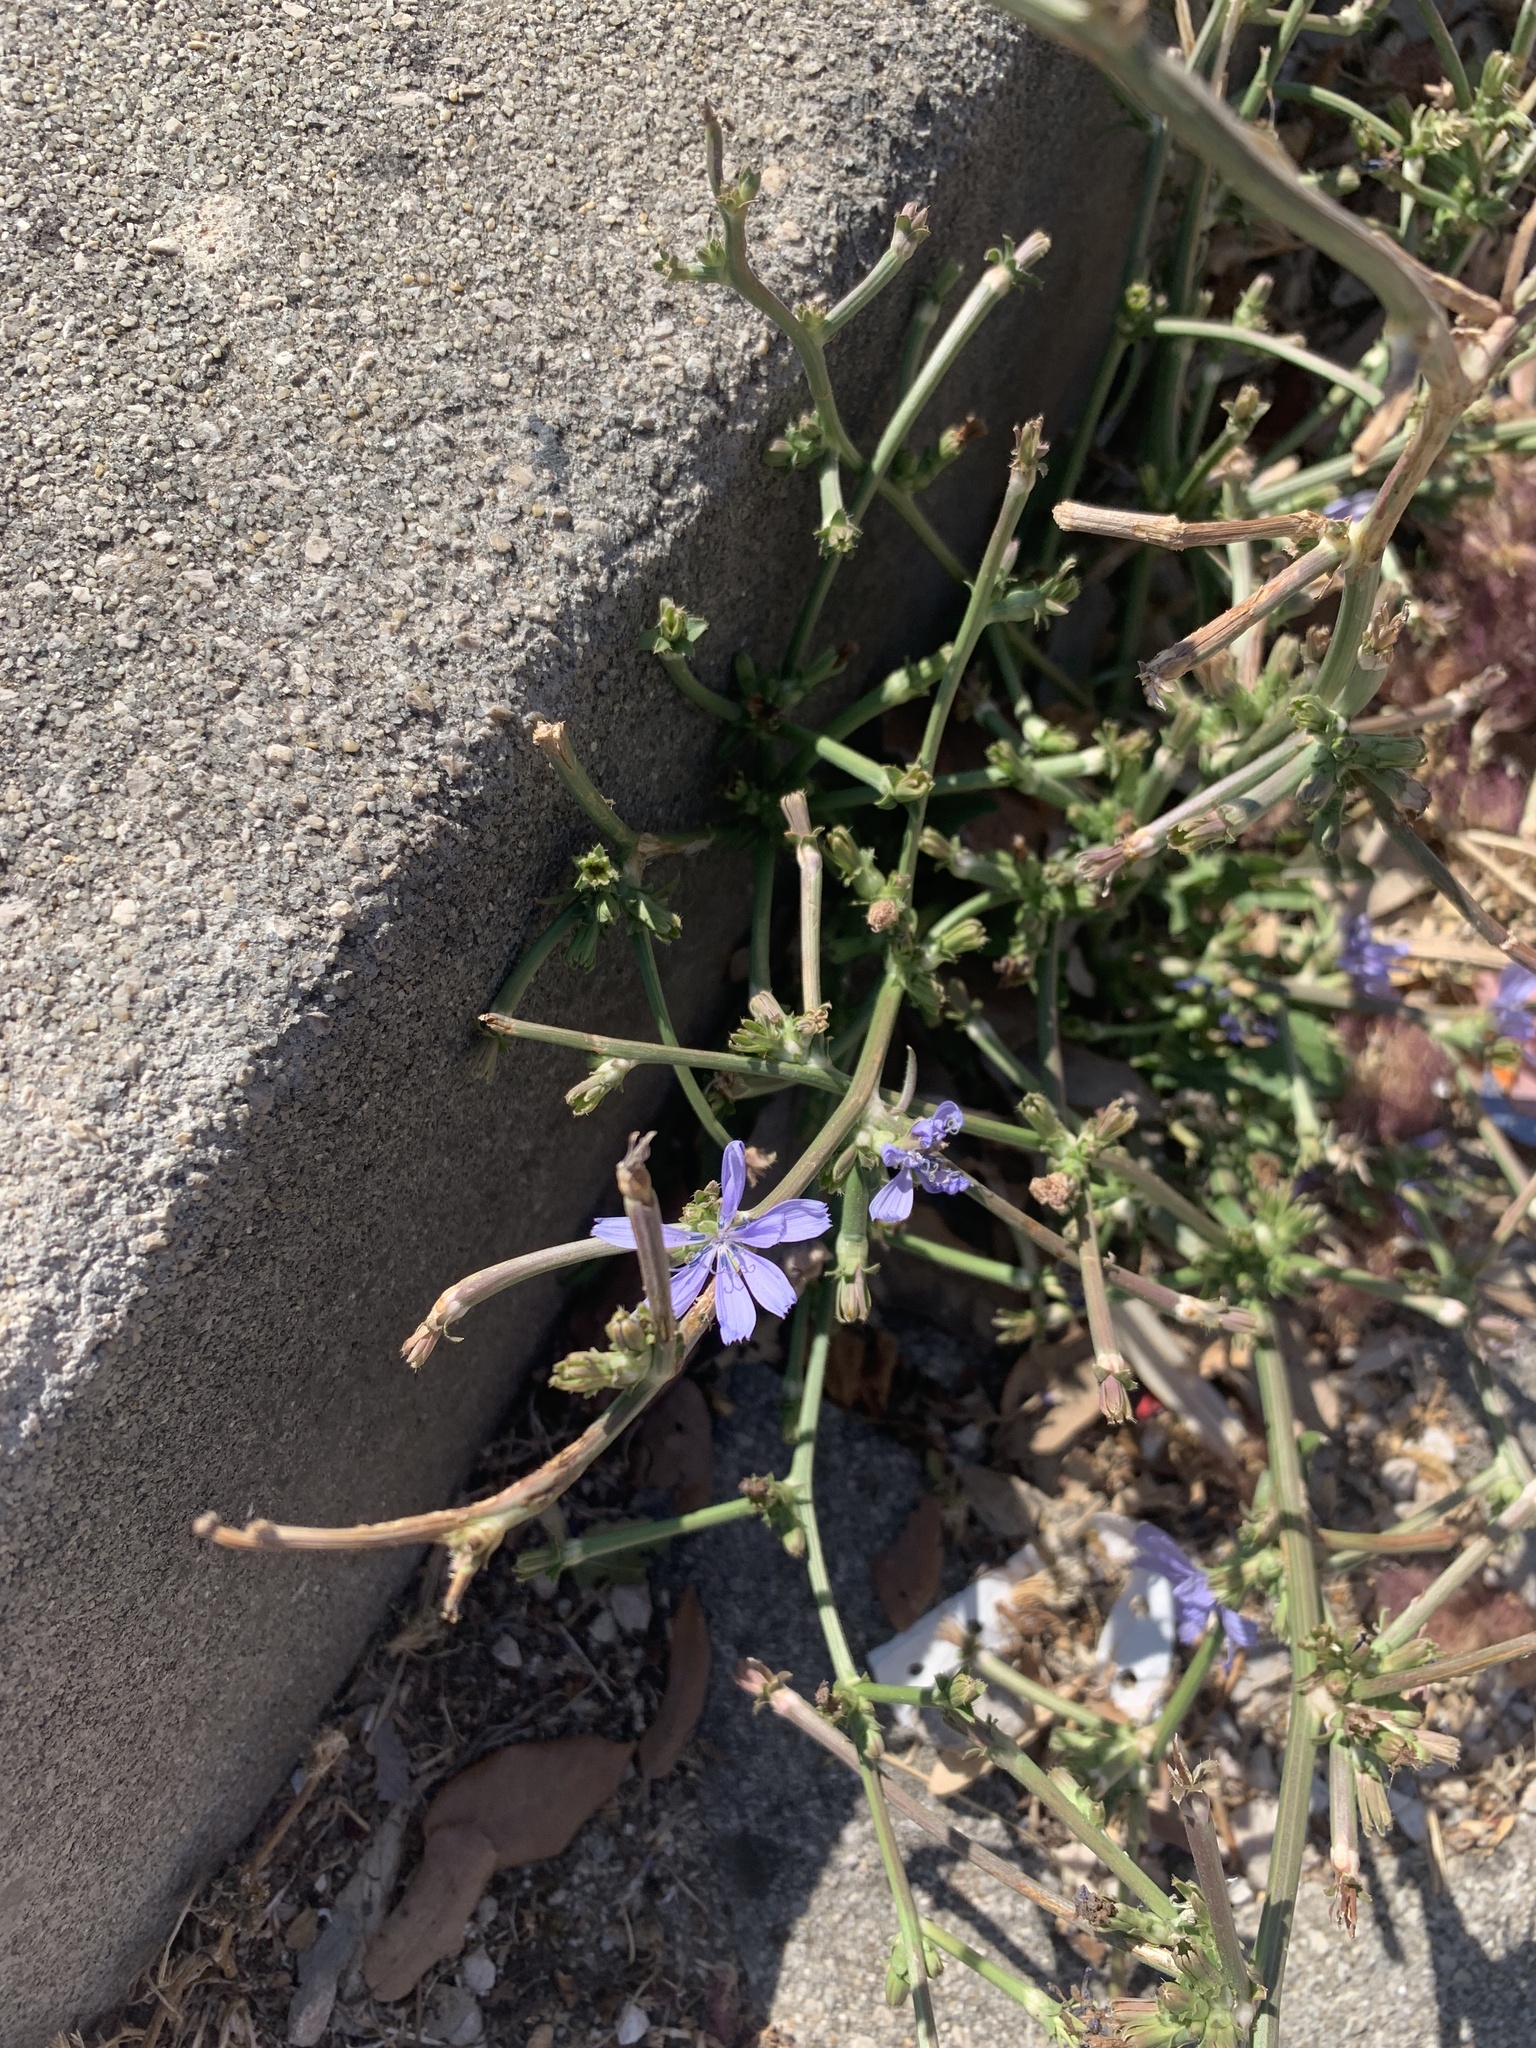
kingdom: Plantae
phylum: Tracheophyta
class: Magnoliopsida
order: Asterales
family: Asteraceae
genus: Cichorium
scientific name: Cichorium intybus
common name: Chicory
